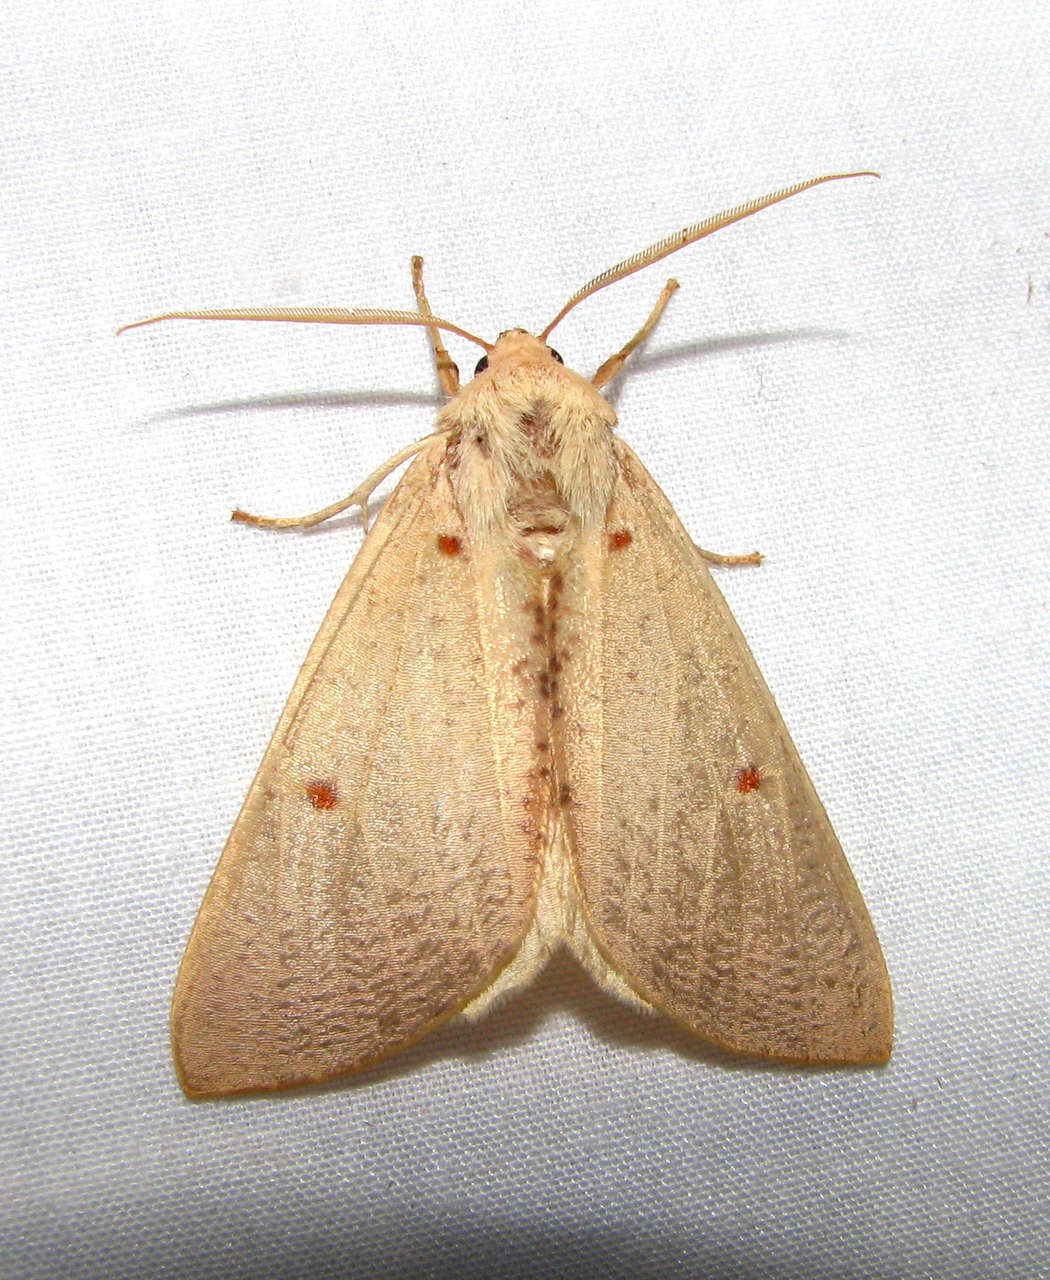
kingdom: Animalia
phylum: Arthropoda
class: Insecta
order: Lepidoptera
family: Geometridae
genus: Plesanemma
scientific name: Plesanemma fucata
